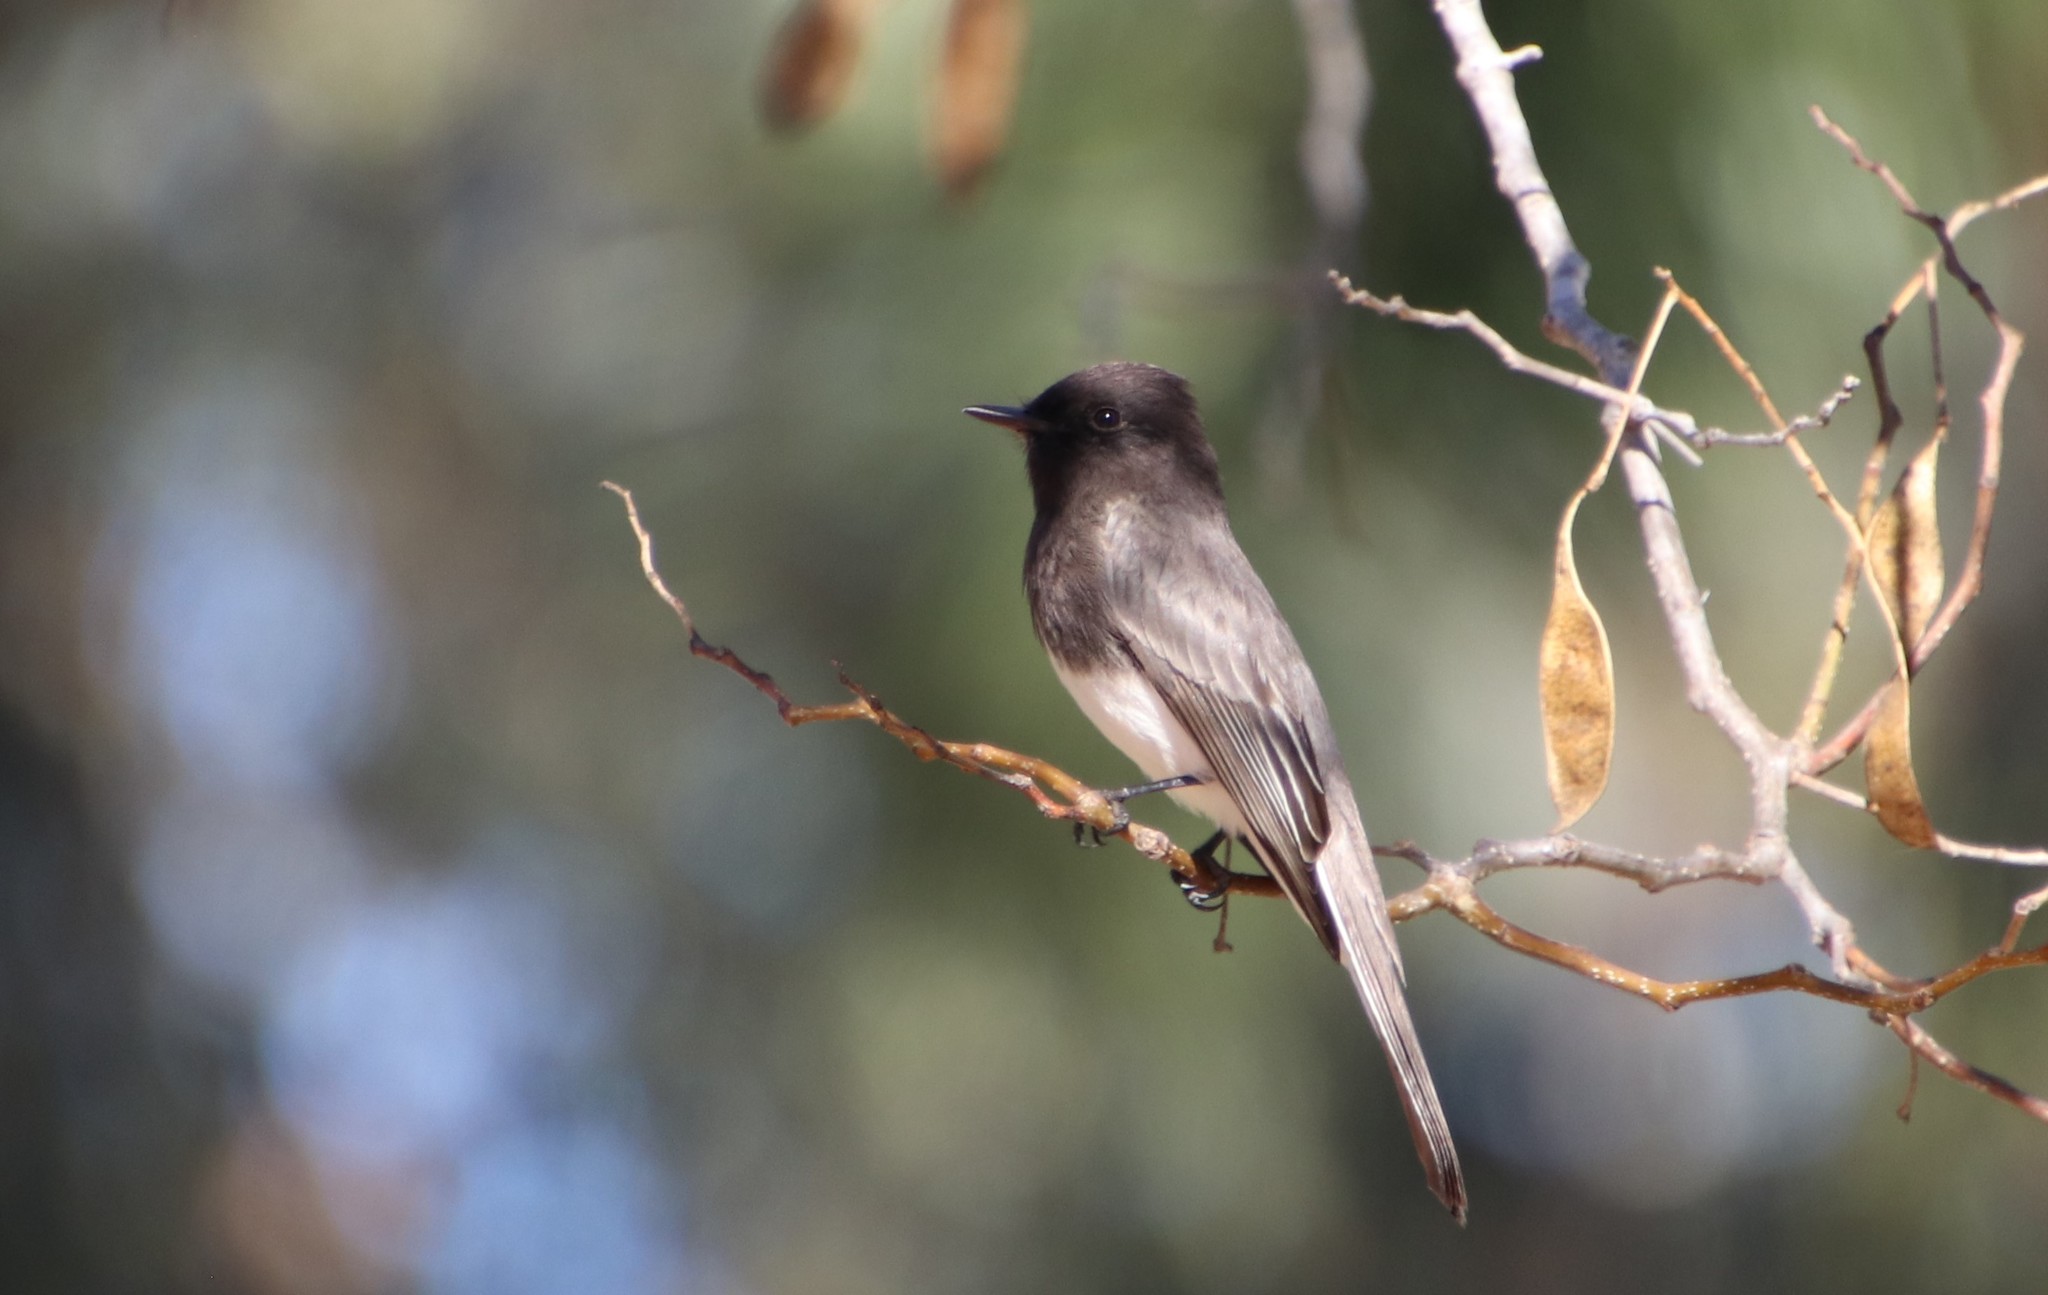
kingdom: Animalia
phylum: Chordata
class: Aves
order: Passeriformes
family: Tyrannidae
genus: Sayornis
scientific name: Sayornis nigricans
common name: Black phoebe
